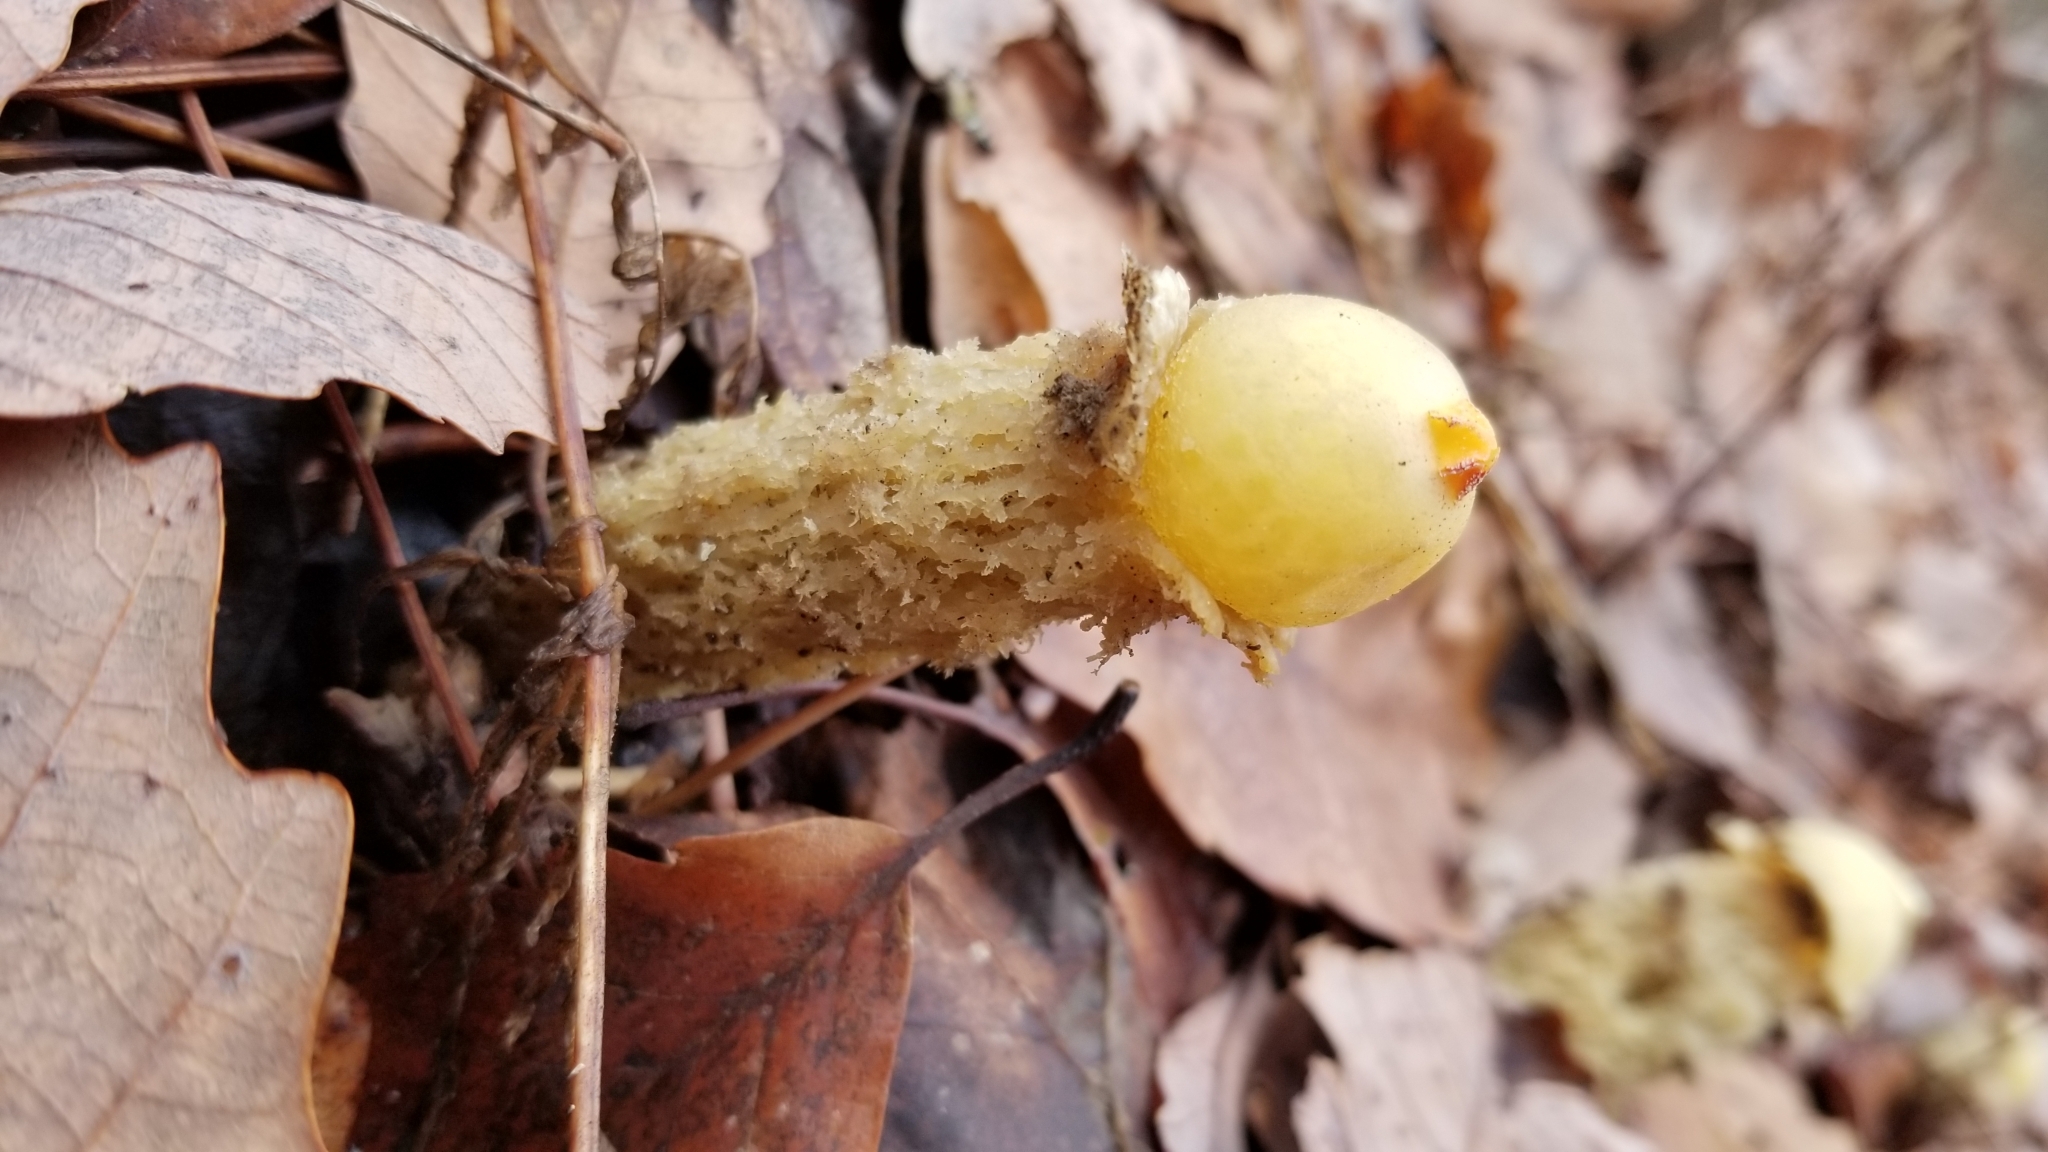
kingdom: Fungi
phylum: Basidiomycota
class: Agaricomycetes
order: Boletales
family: Calostomataceae
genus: Calostoma
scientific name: Calostoma lutescens
